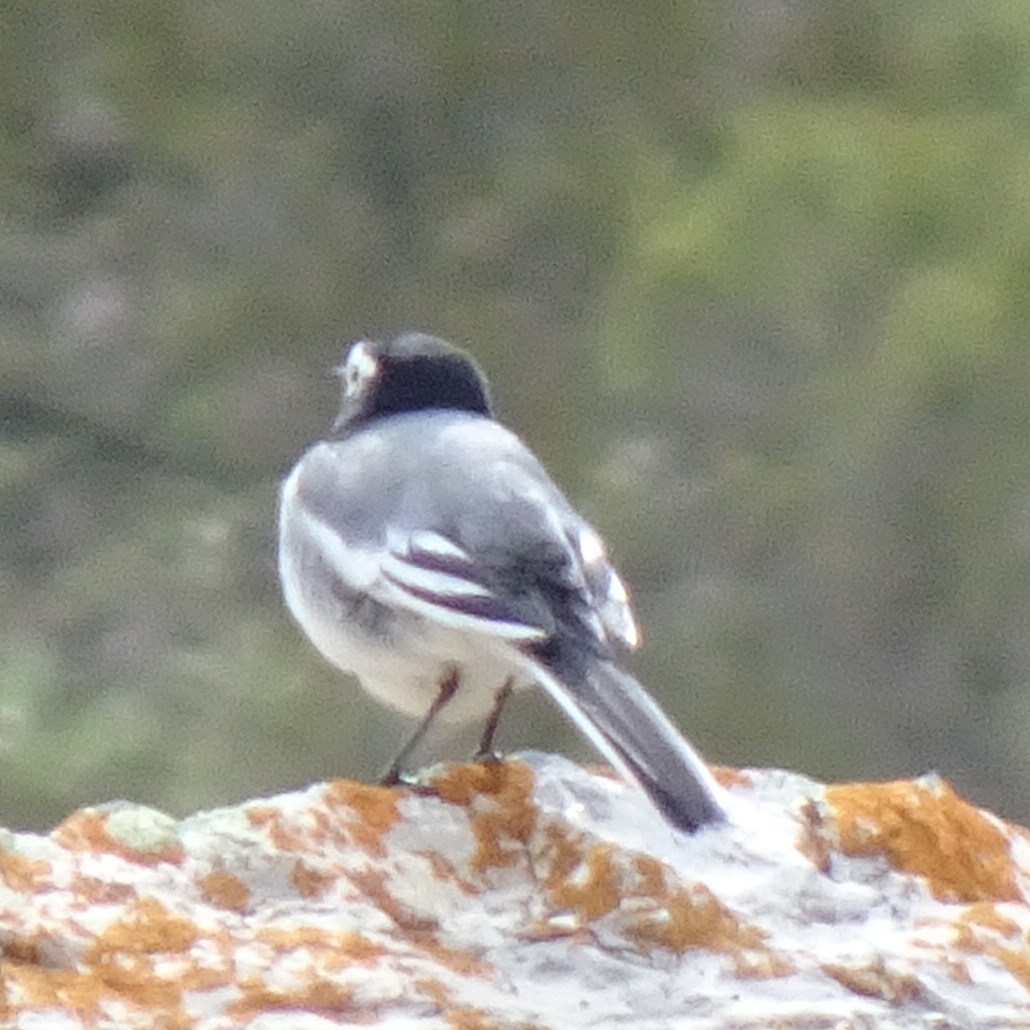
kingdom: Animalia
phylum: Chordata
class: Aves
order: Passeriformes
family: Motacillidae
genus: Motacilla
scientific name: Motacilla alba
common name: White wagtail
